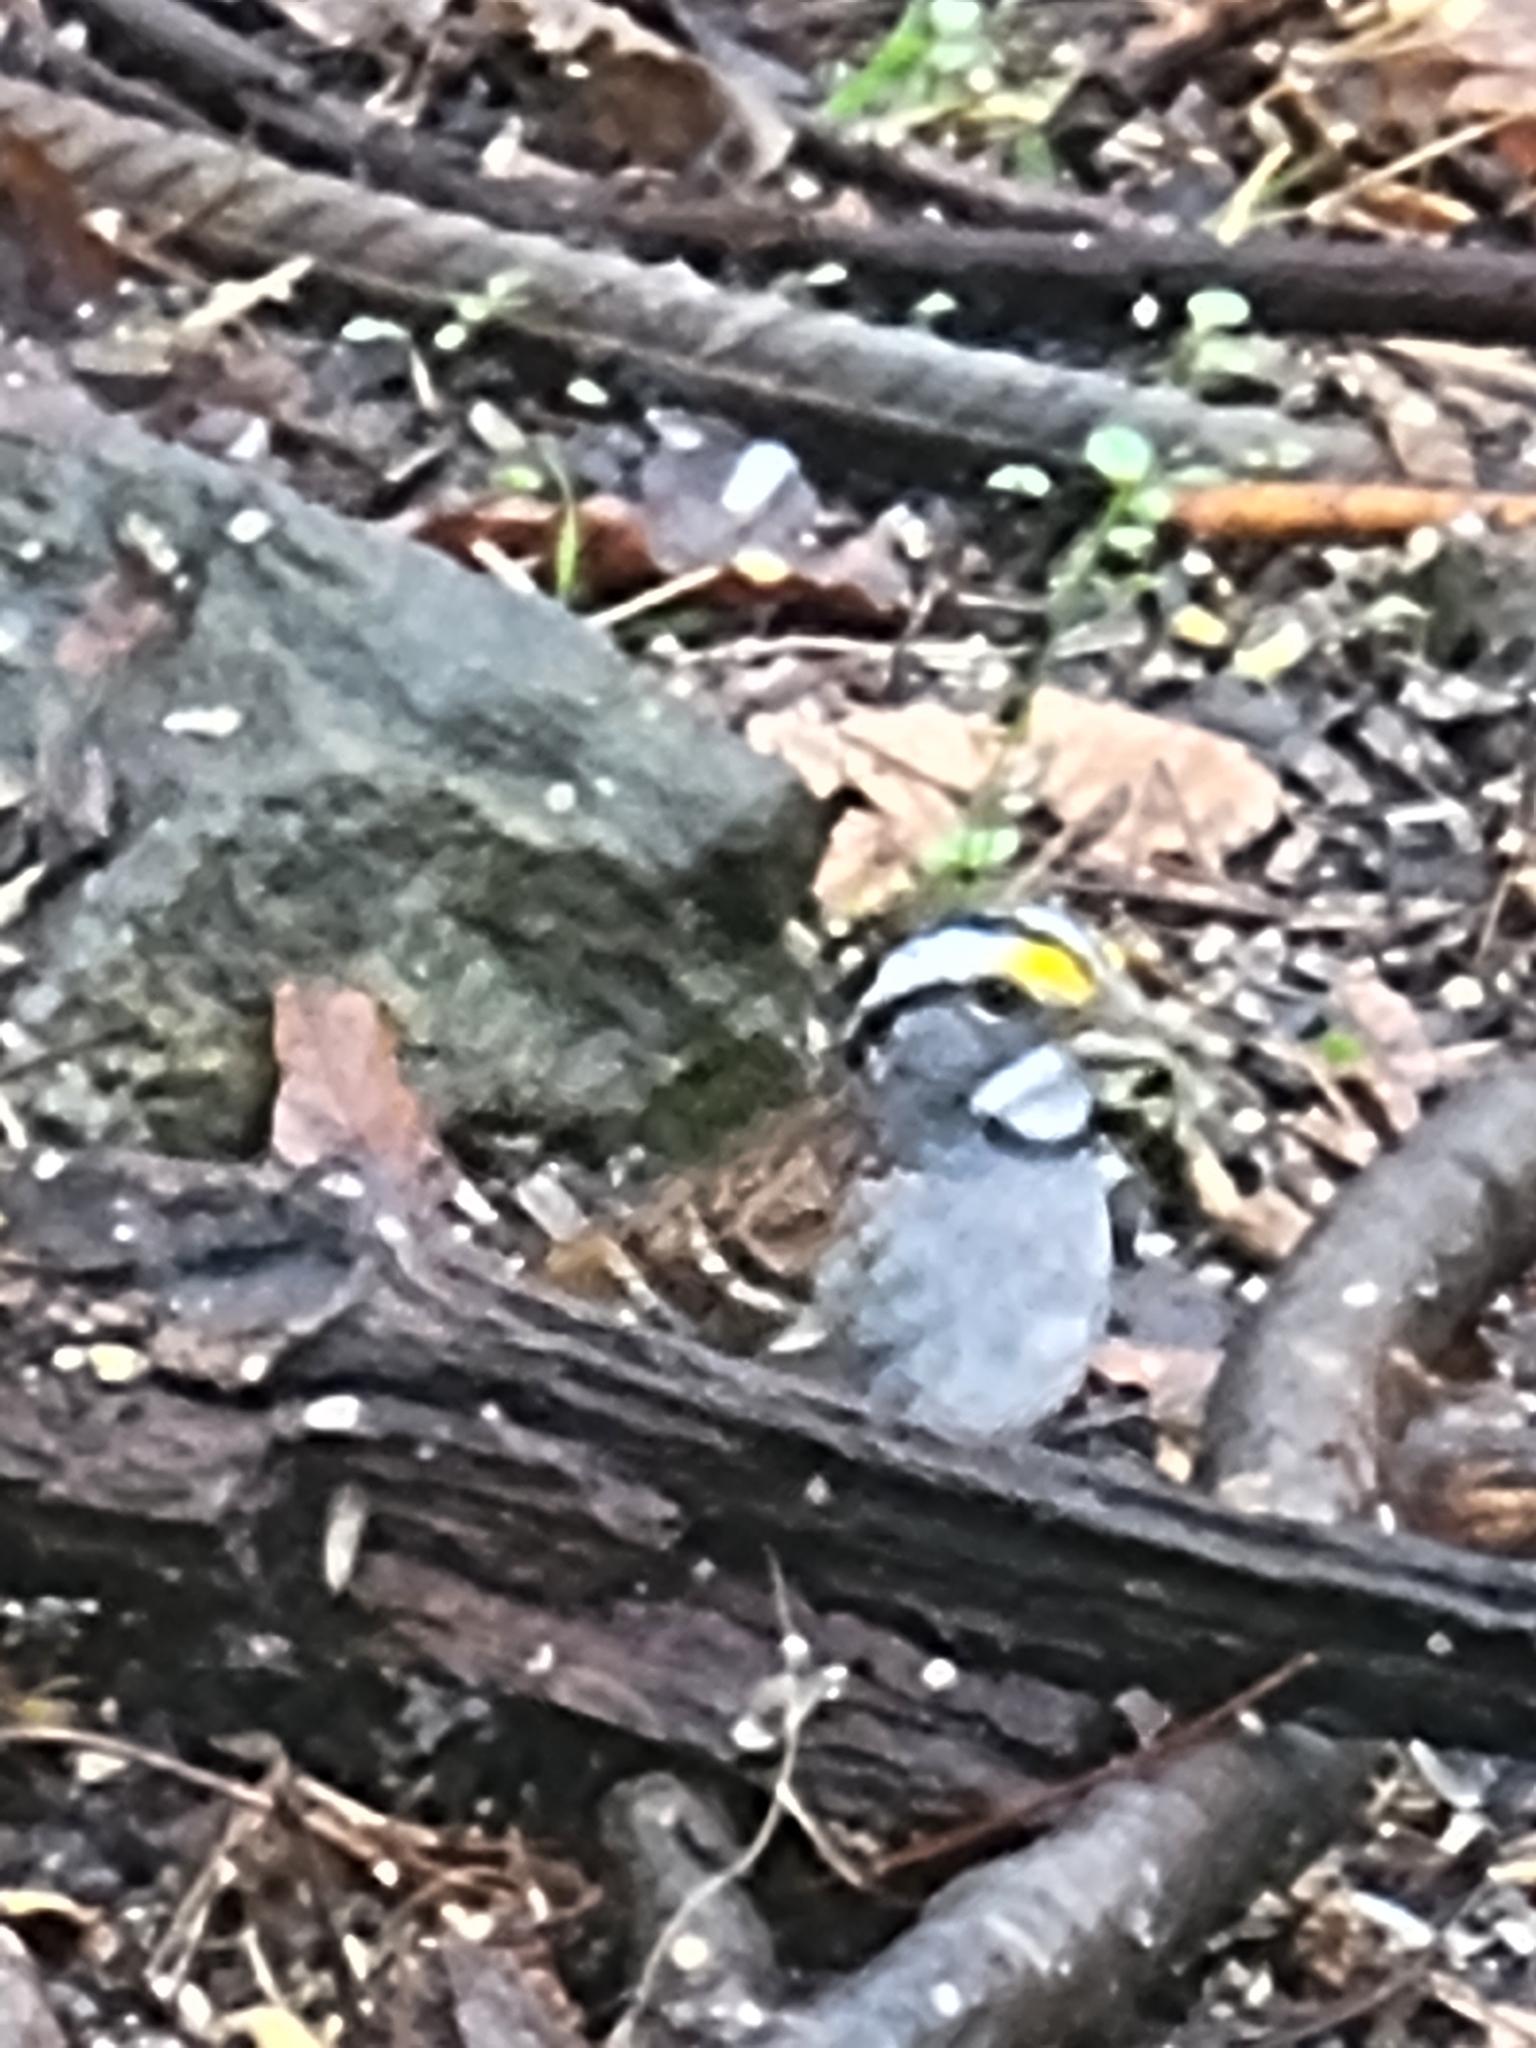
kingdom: Animalia
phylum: Chordata
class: Aves
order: Passeriformes
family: Passerellidae
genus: Zonotrichia
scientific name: Zonotrichia albicollis
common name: White-throated sparrow
